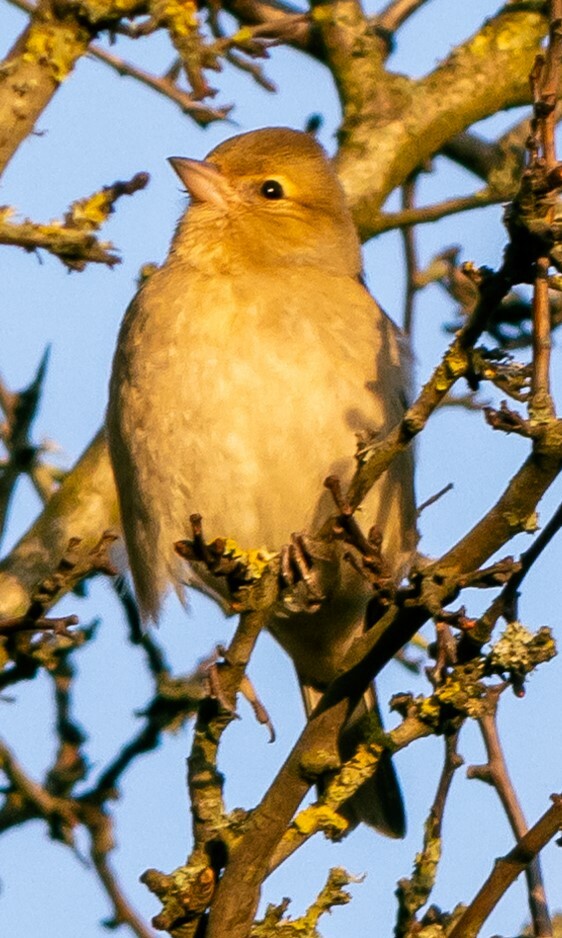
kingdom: Animalia
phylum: Chordata
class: Aves
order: Passeriformes
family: Fringillidae
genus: Fringilla
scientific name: Fringilla coelebs
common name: Common chaffinch
